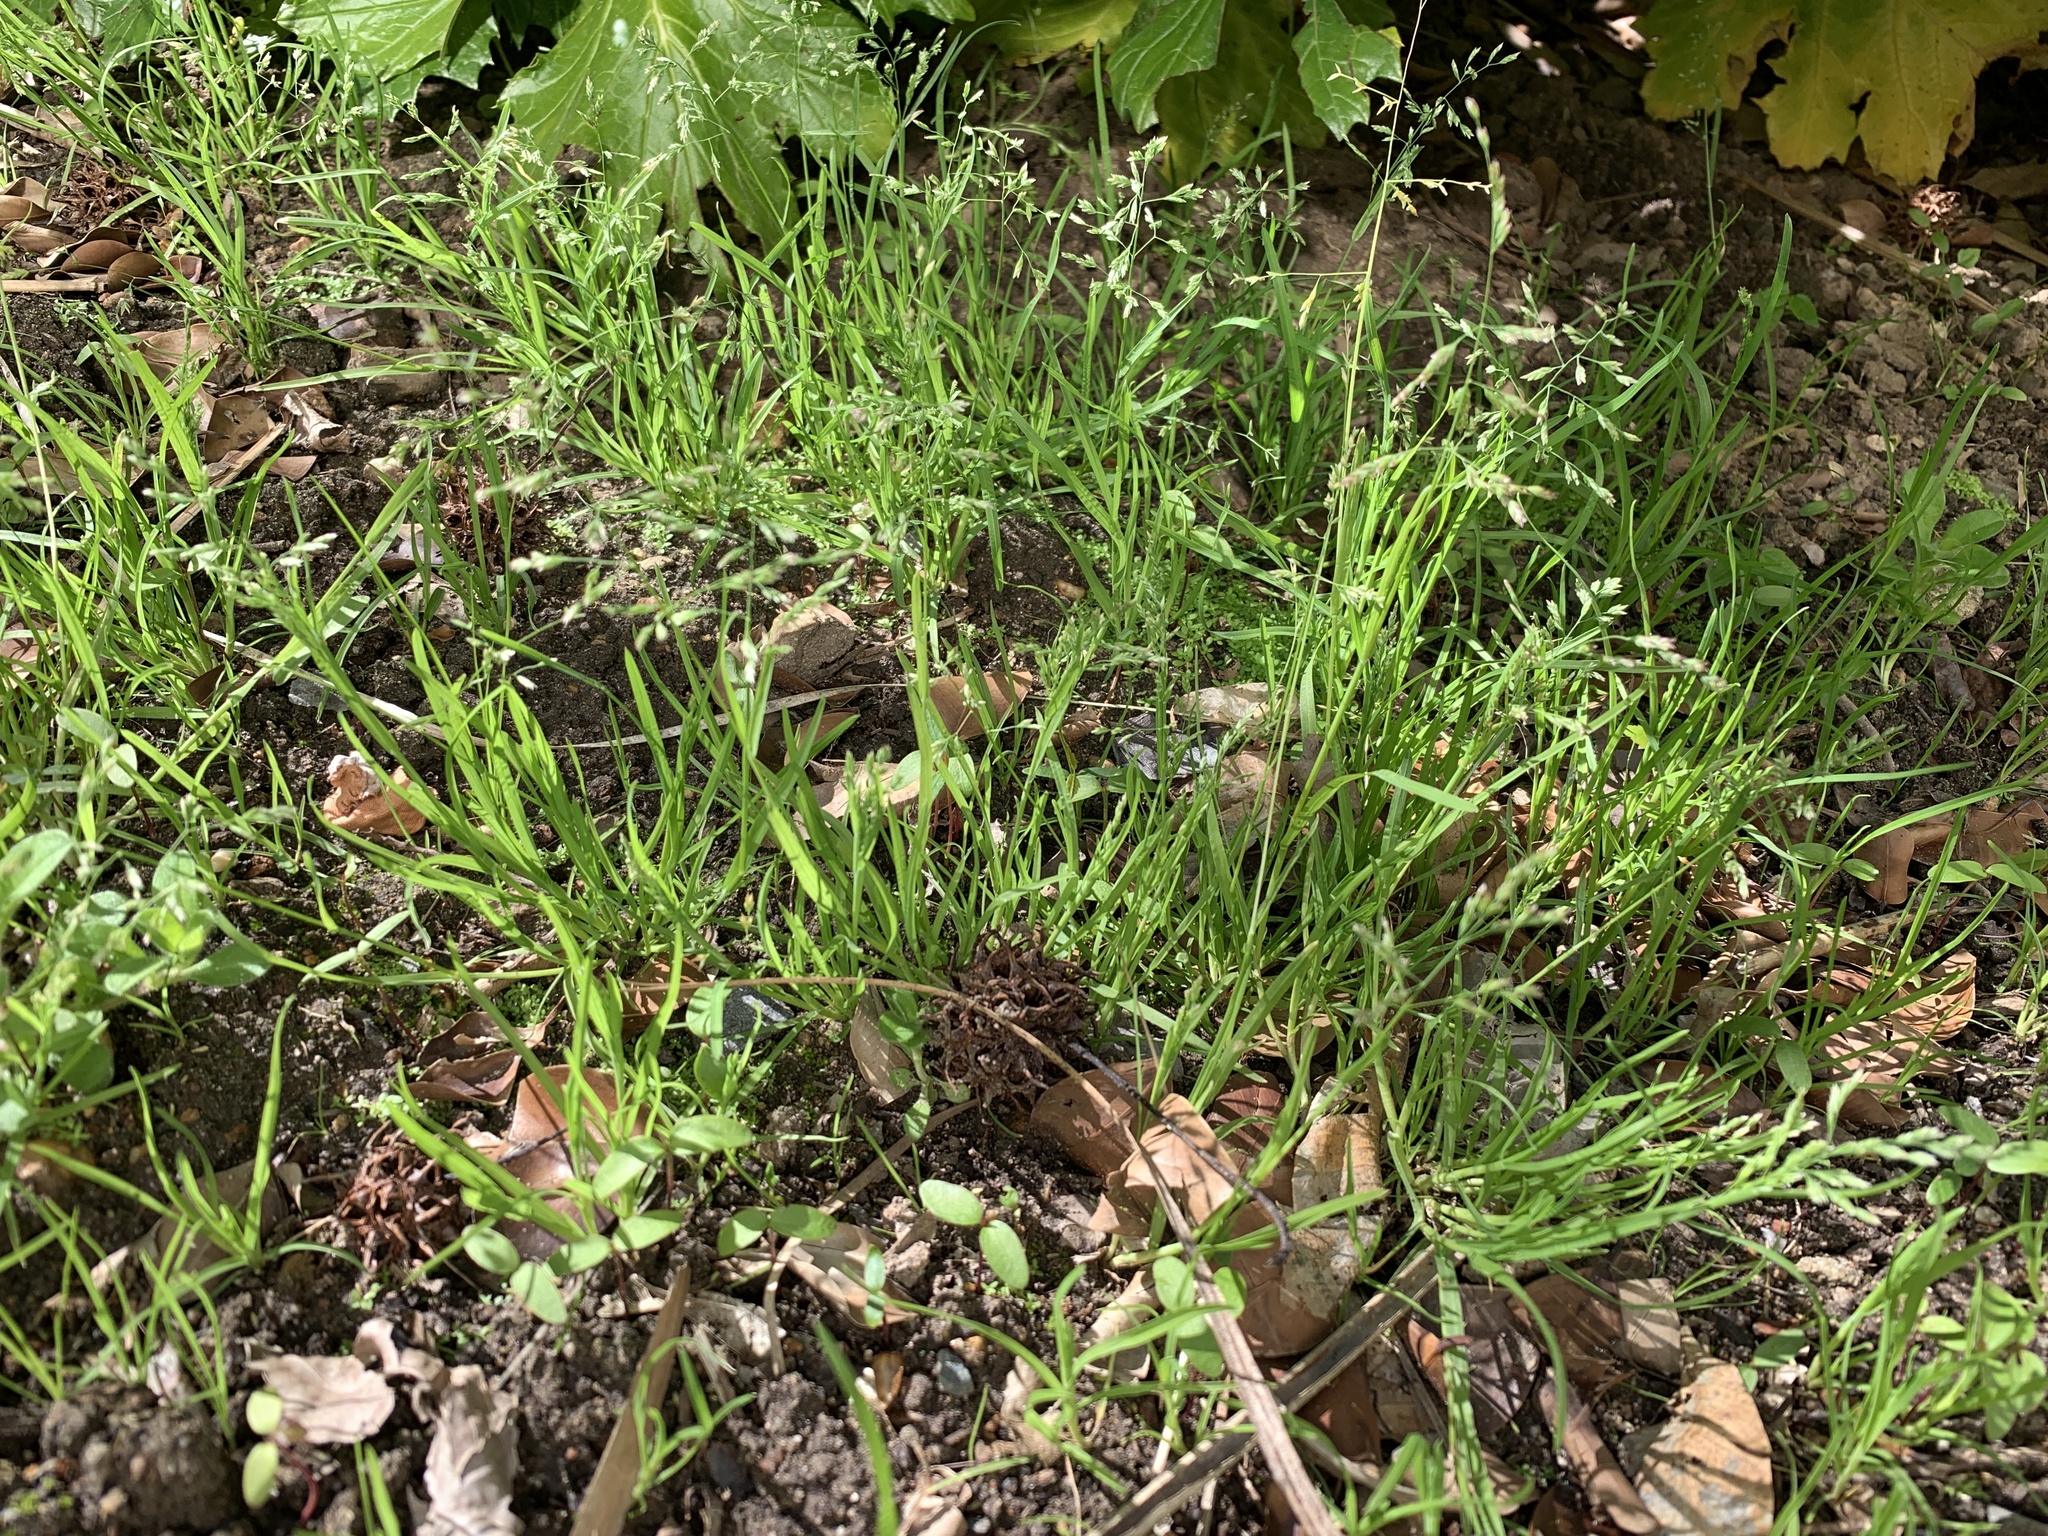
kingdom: Plantae
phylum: Tracheophyta
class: Liliopsida
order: Poales
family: Poaceae
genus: Poa
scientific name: Poa annua
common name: Annual bluegrass
